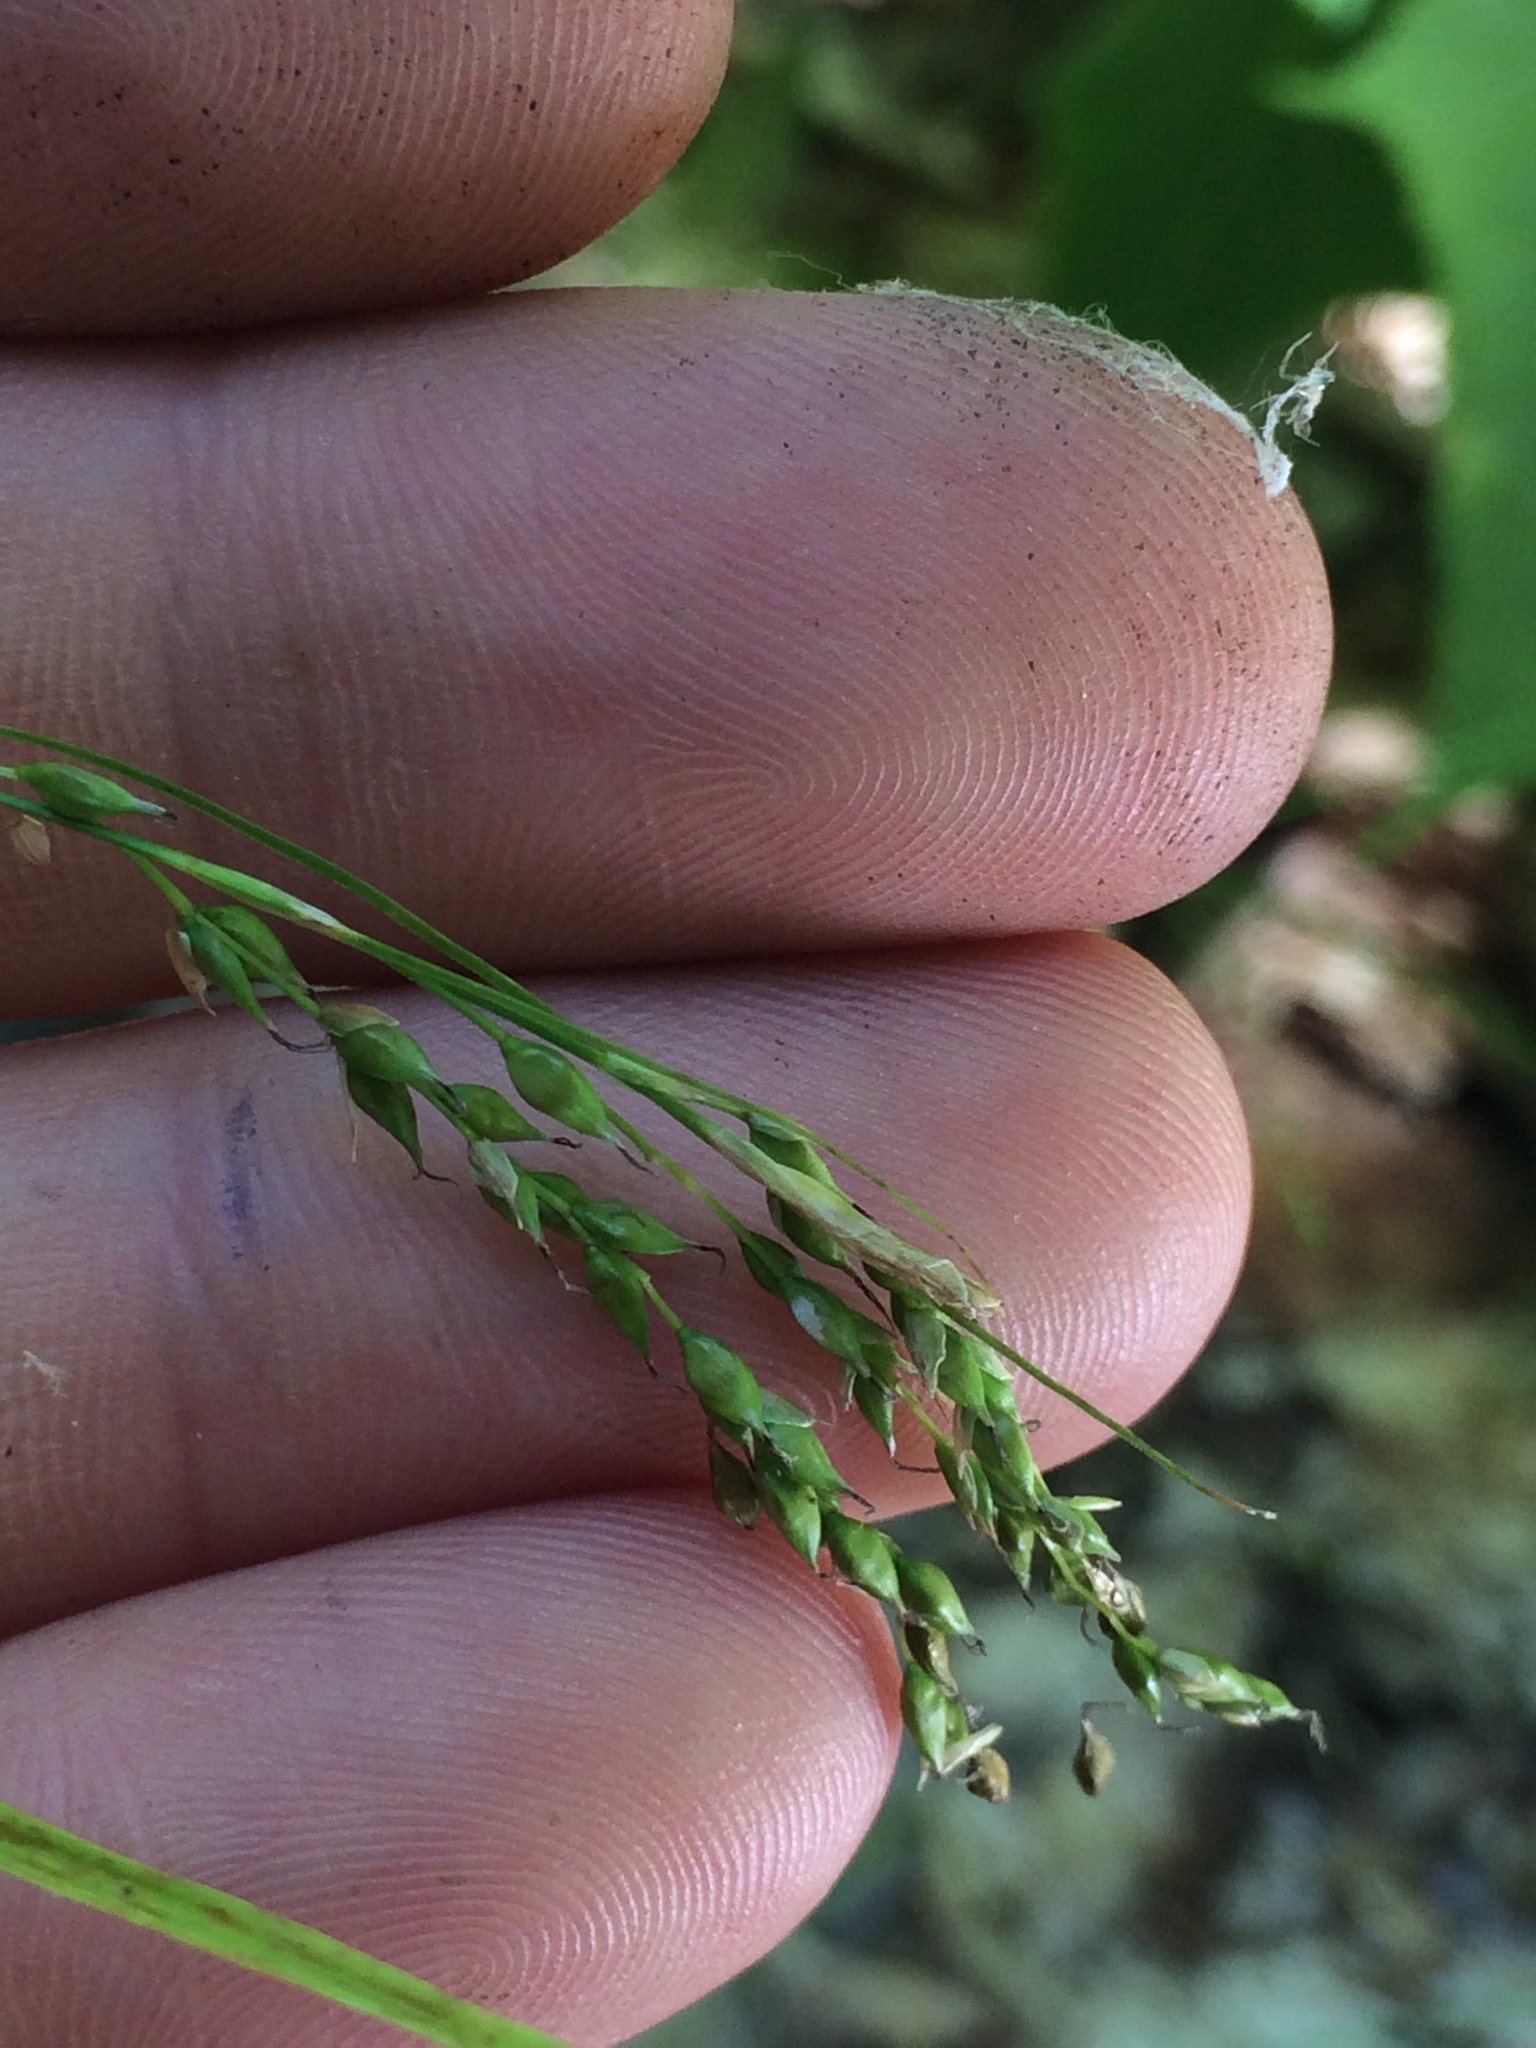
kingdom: Plantae
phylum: Tracheophyta
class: Liliopsida
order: Poales
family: Cyperaceae
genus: Carex
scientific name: Carex arctata
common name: Black sedge
